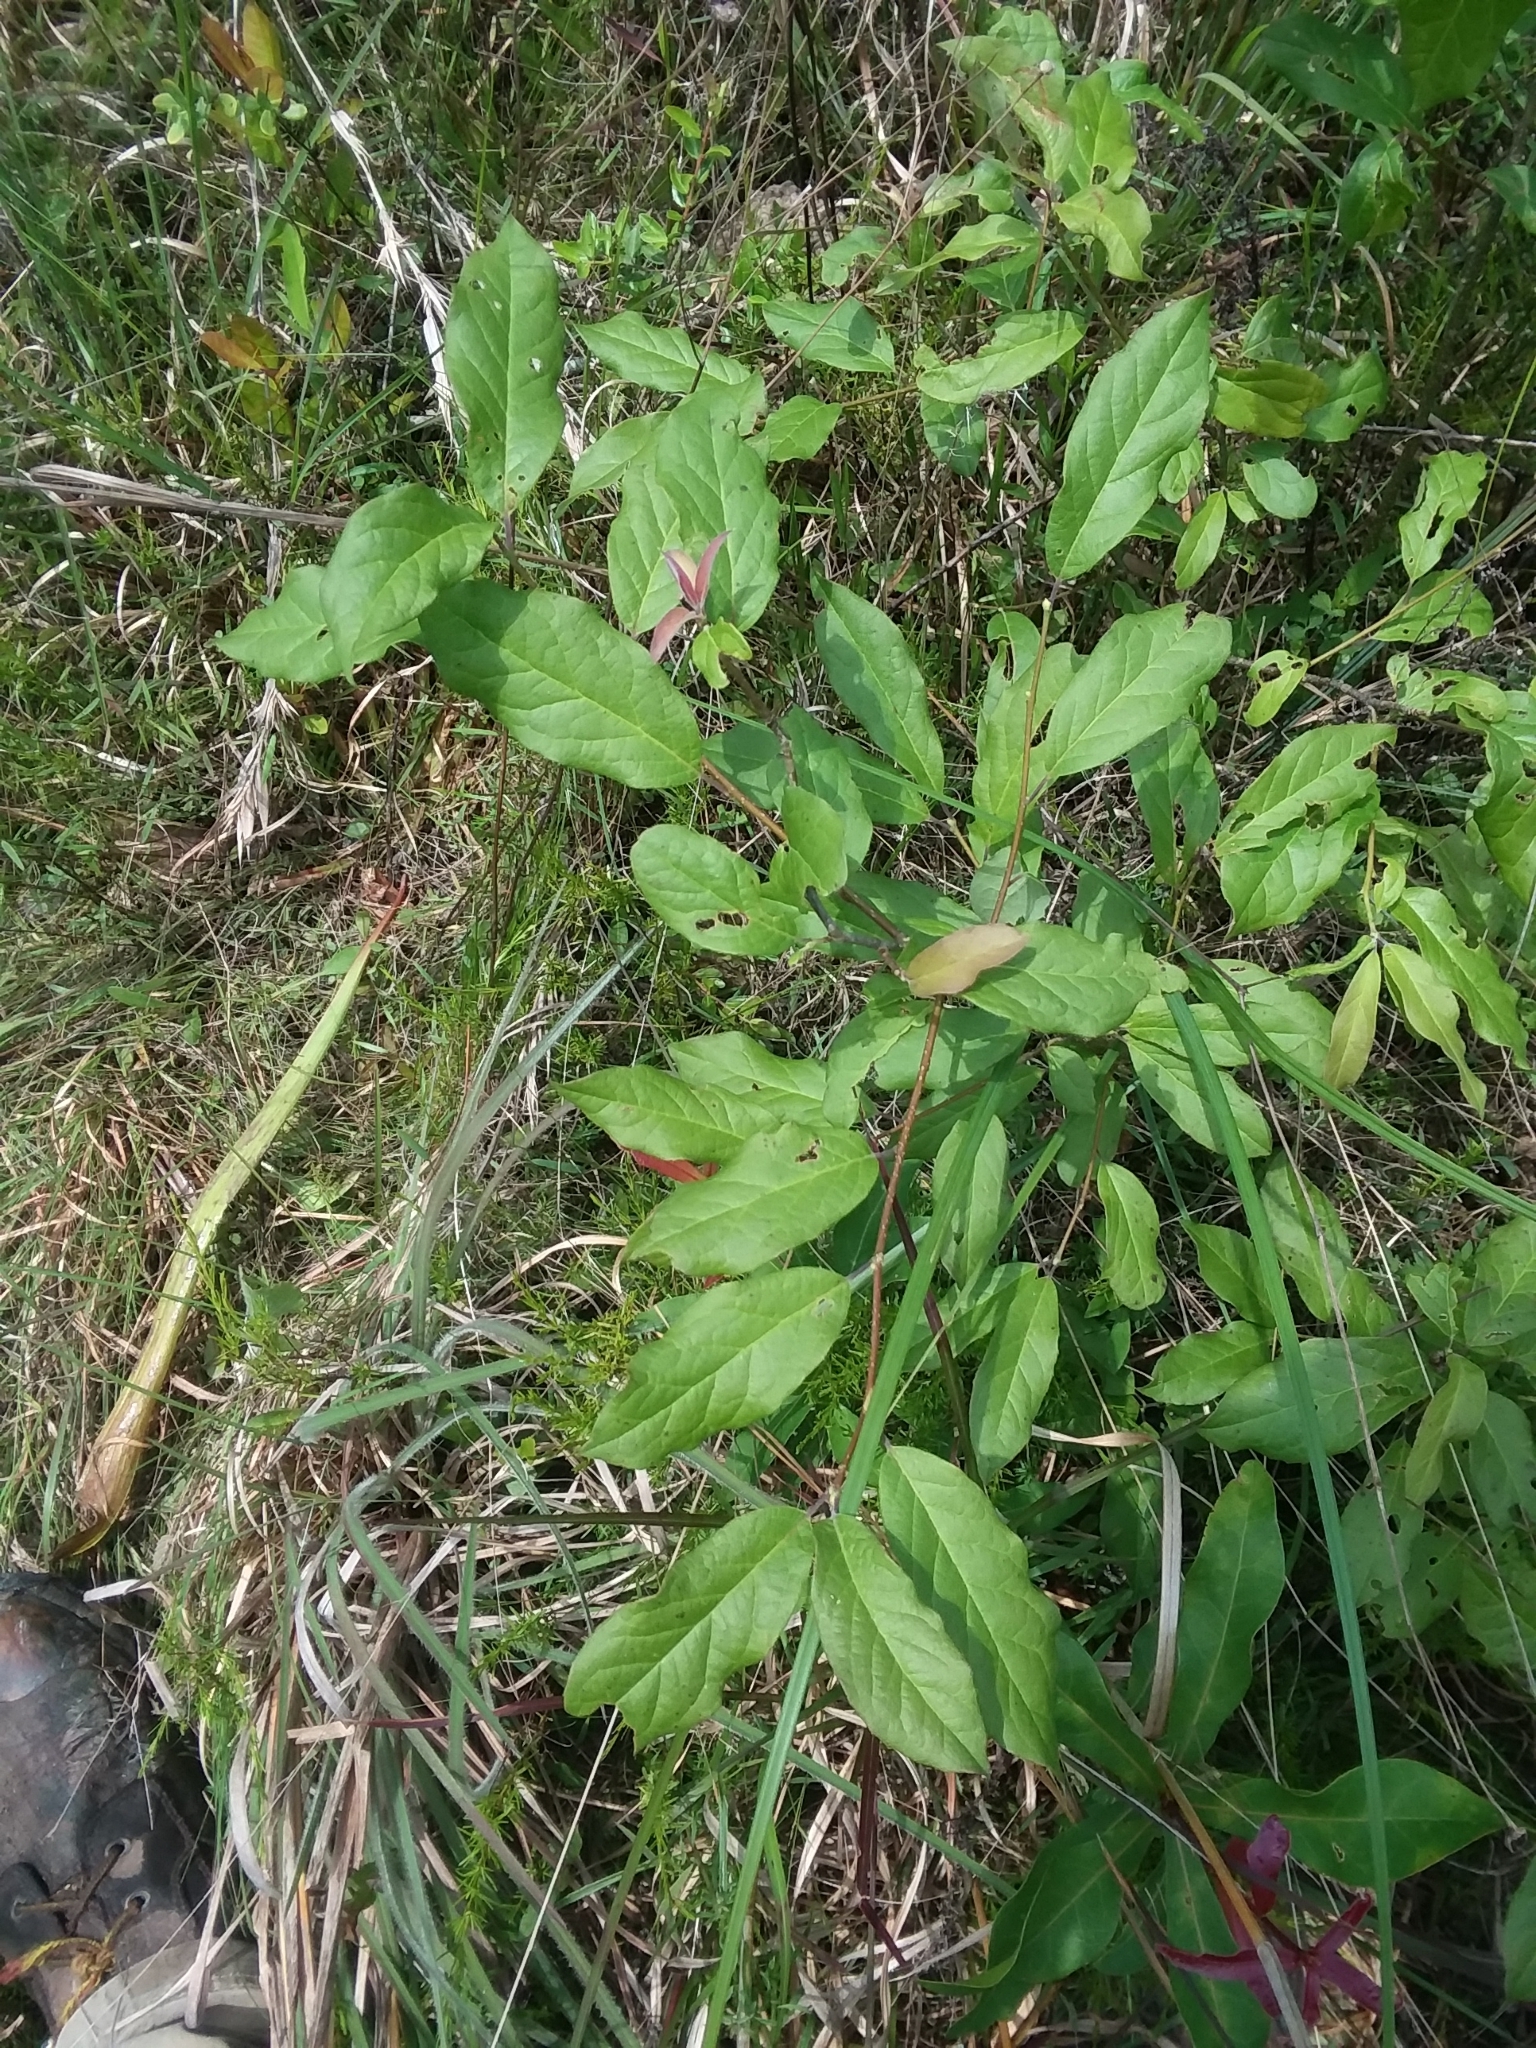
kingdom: Plantae
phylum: Tracheophyta
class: Magnoliopsida
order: Aquifoliales
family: Aquifoliaceae
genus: Ilex
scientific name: Ilex amelanchier
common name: Sarvis holly
